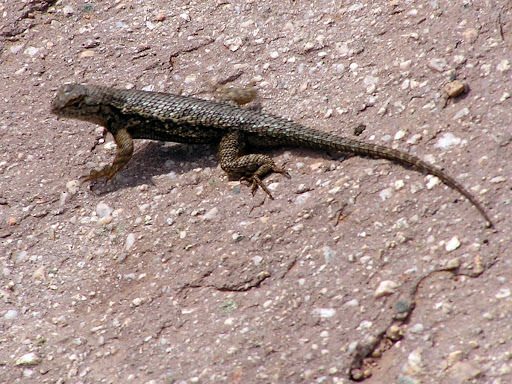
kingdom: Animalia
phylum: Chordata
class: Squamata
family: Phrynosomatidae
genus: Sceloporus
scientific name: Sceloporus occidentalis
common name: Western fence lizard
